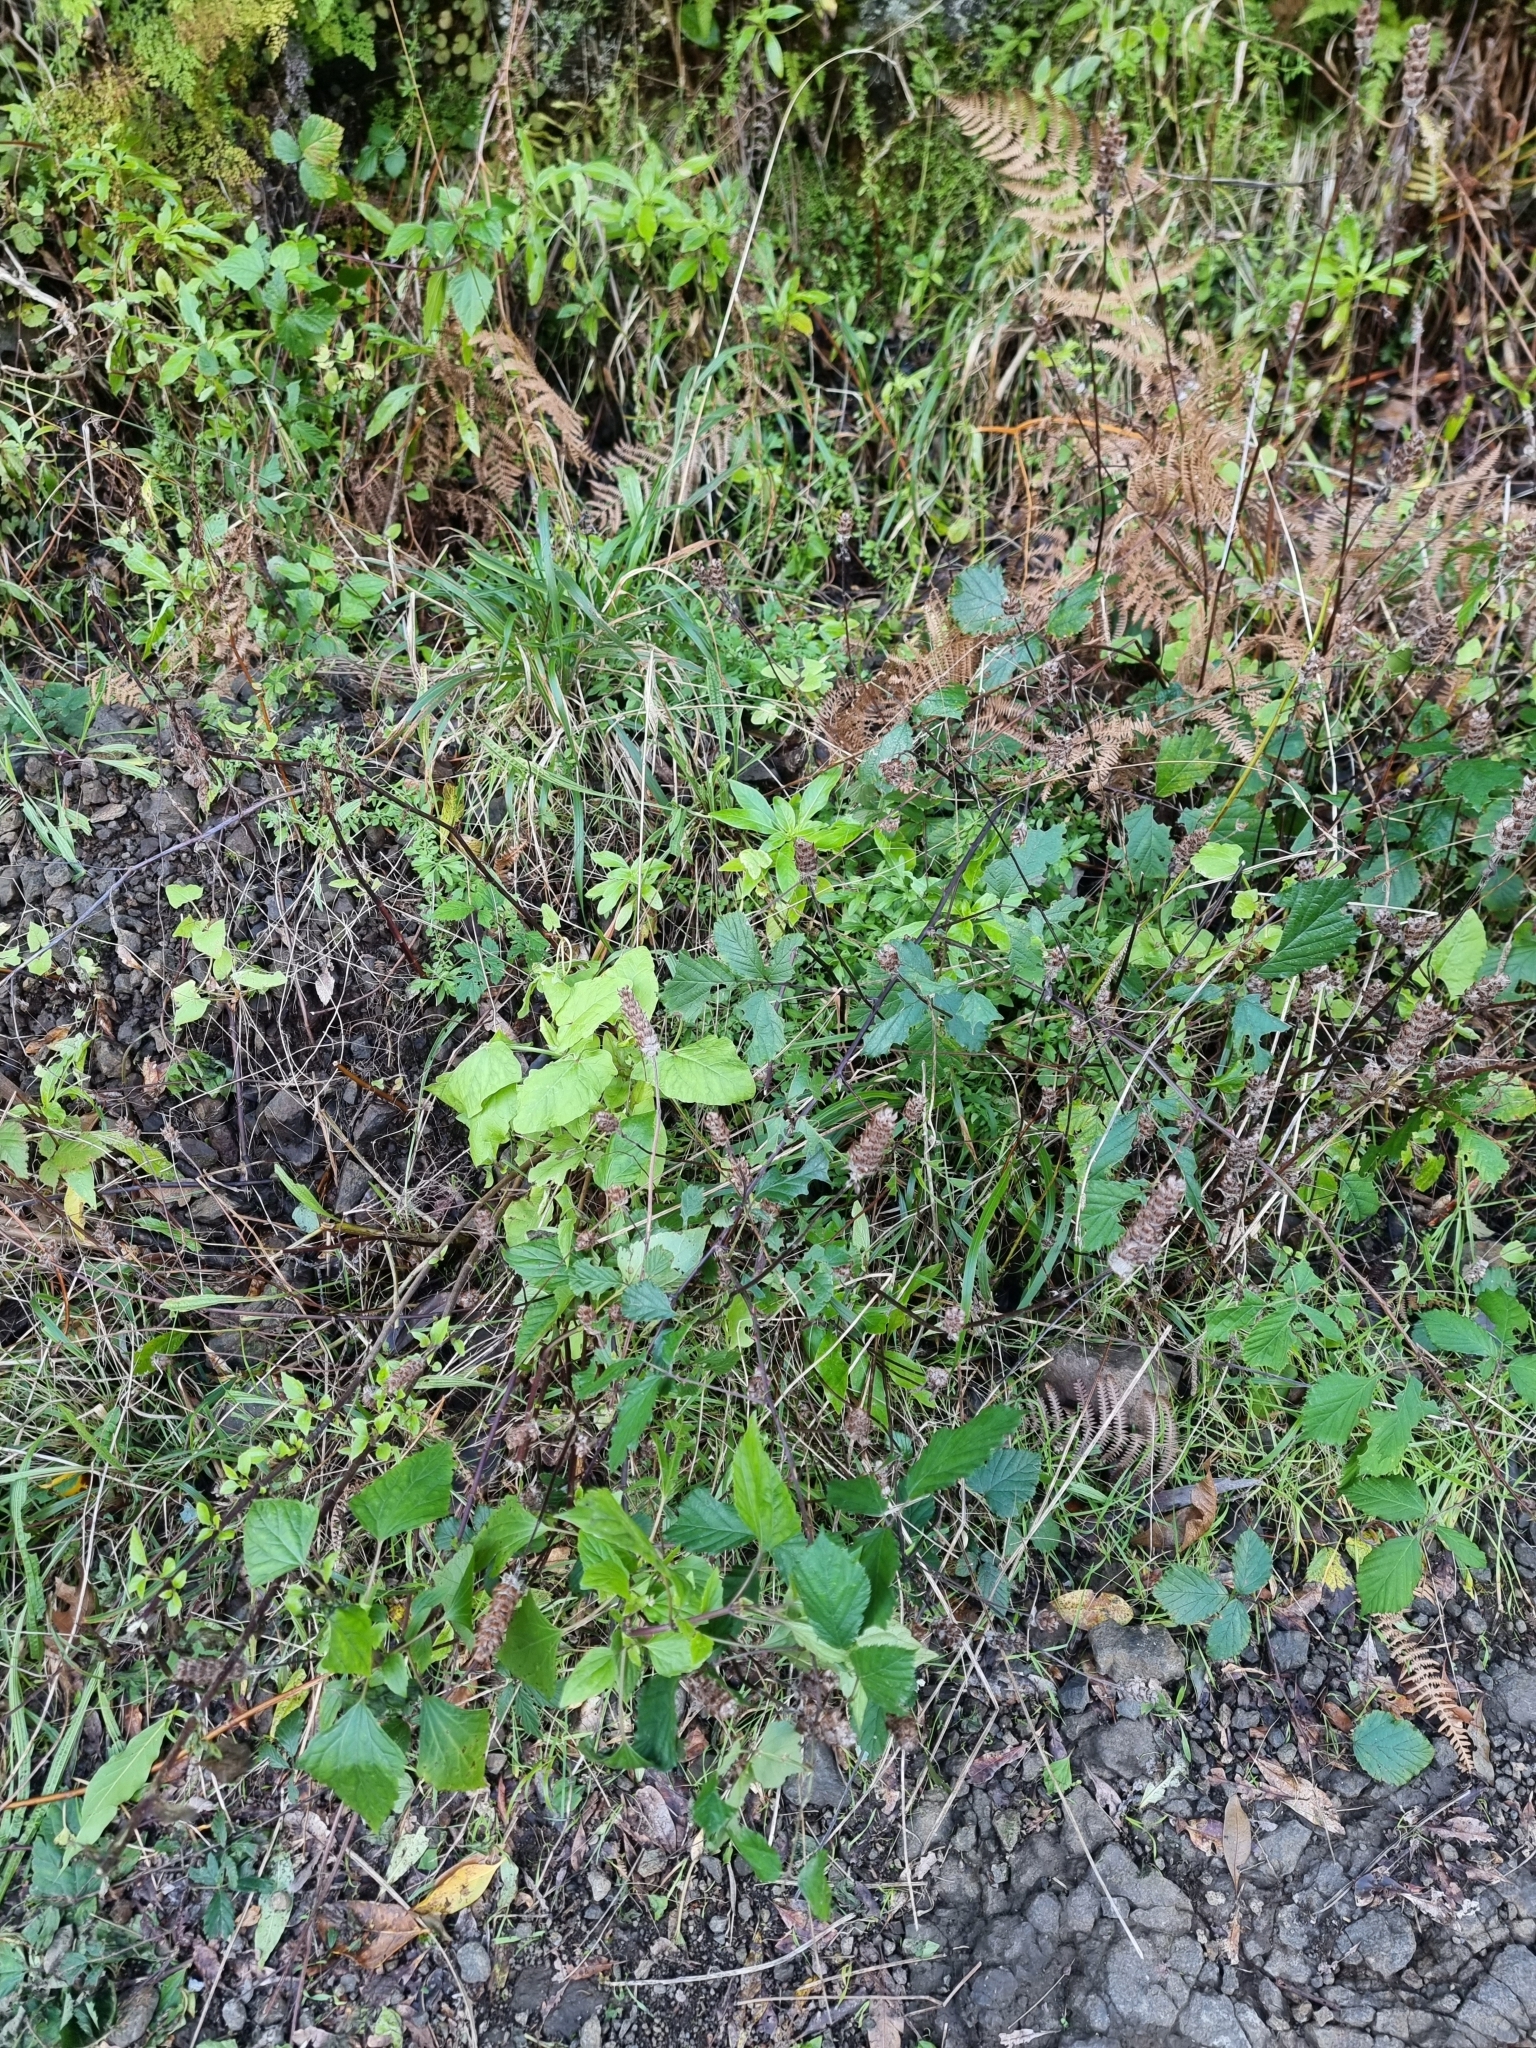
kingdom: Plantae
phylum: Tracheophyta
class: Magnoliopsida
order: Lamiales
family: Lamiaceae
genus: Prunella
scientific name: Prunella vulgaris
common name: Heal-all
